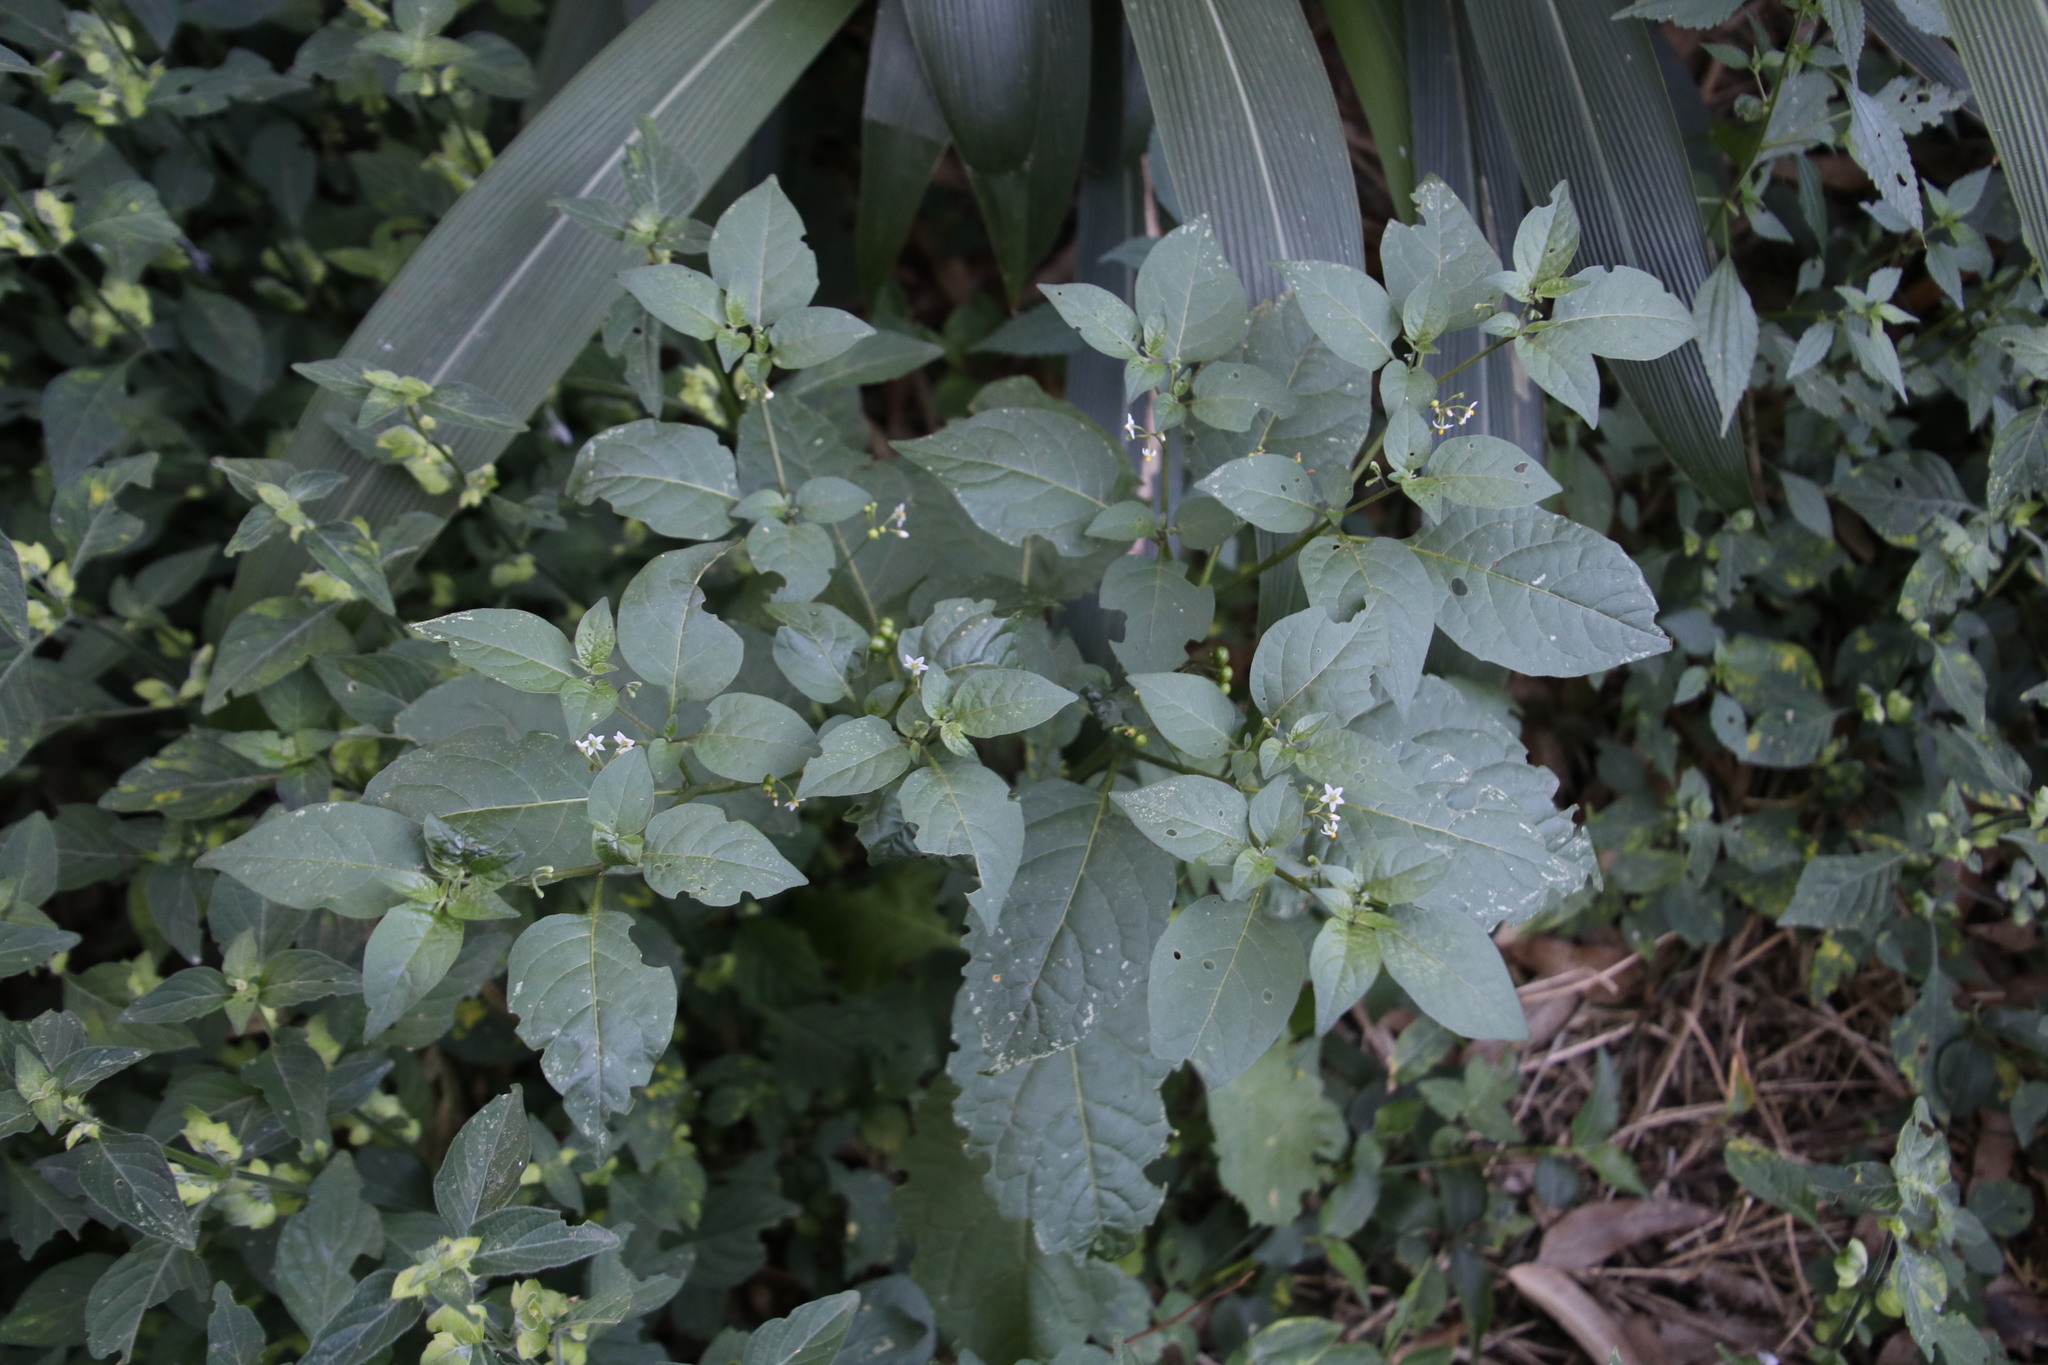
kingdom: Plantae
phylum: Tracheophyta
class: Magnoliopsida
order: Solanales
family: Solanaceae
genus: Solanum
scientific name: Solanum americanum
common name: American black nightshade
